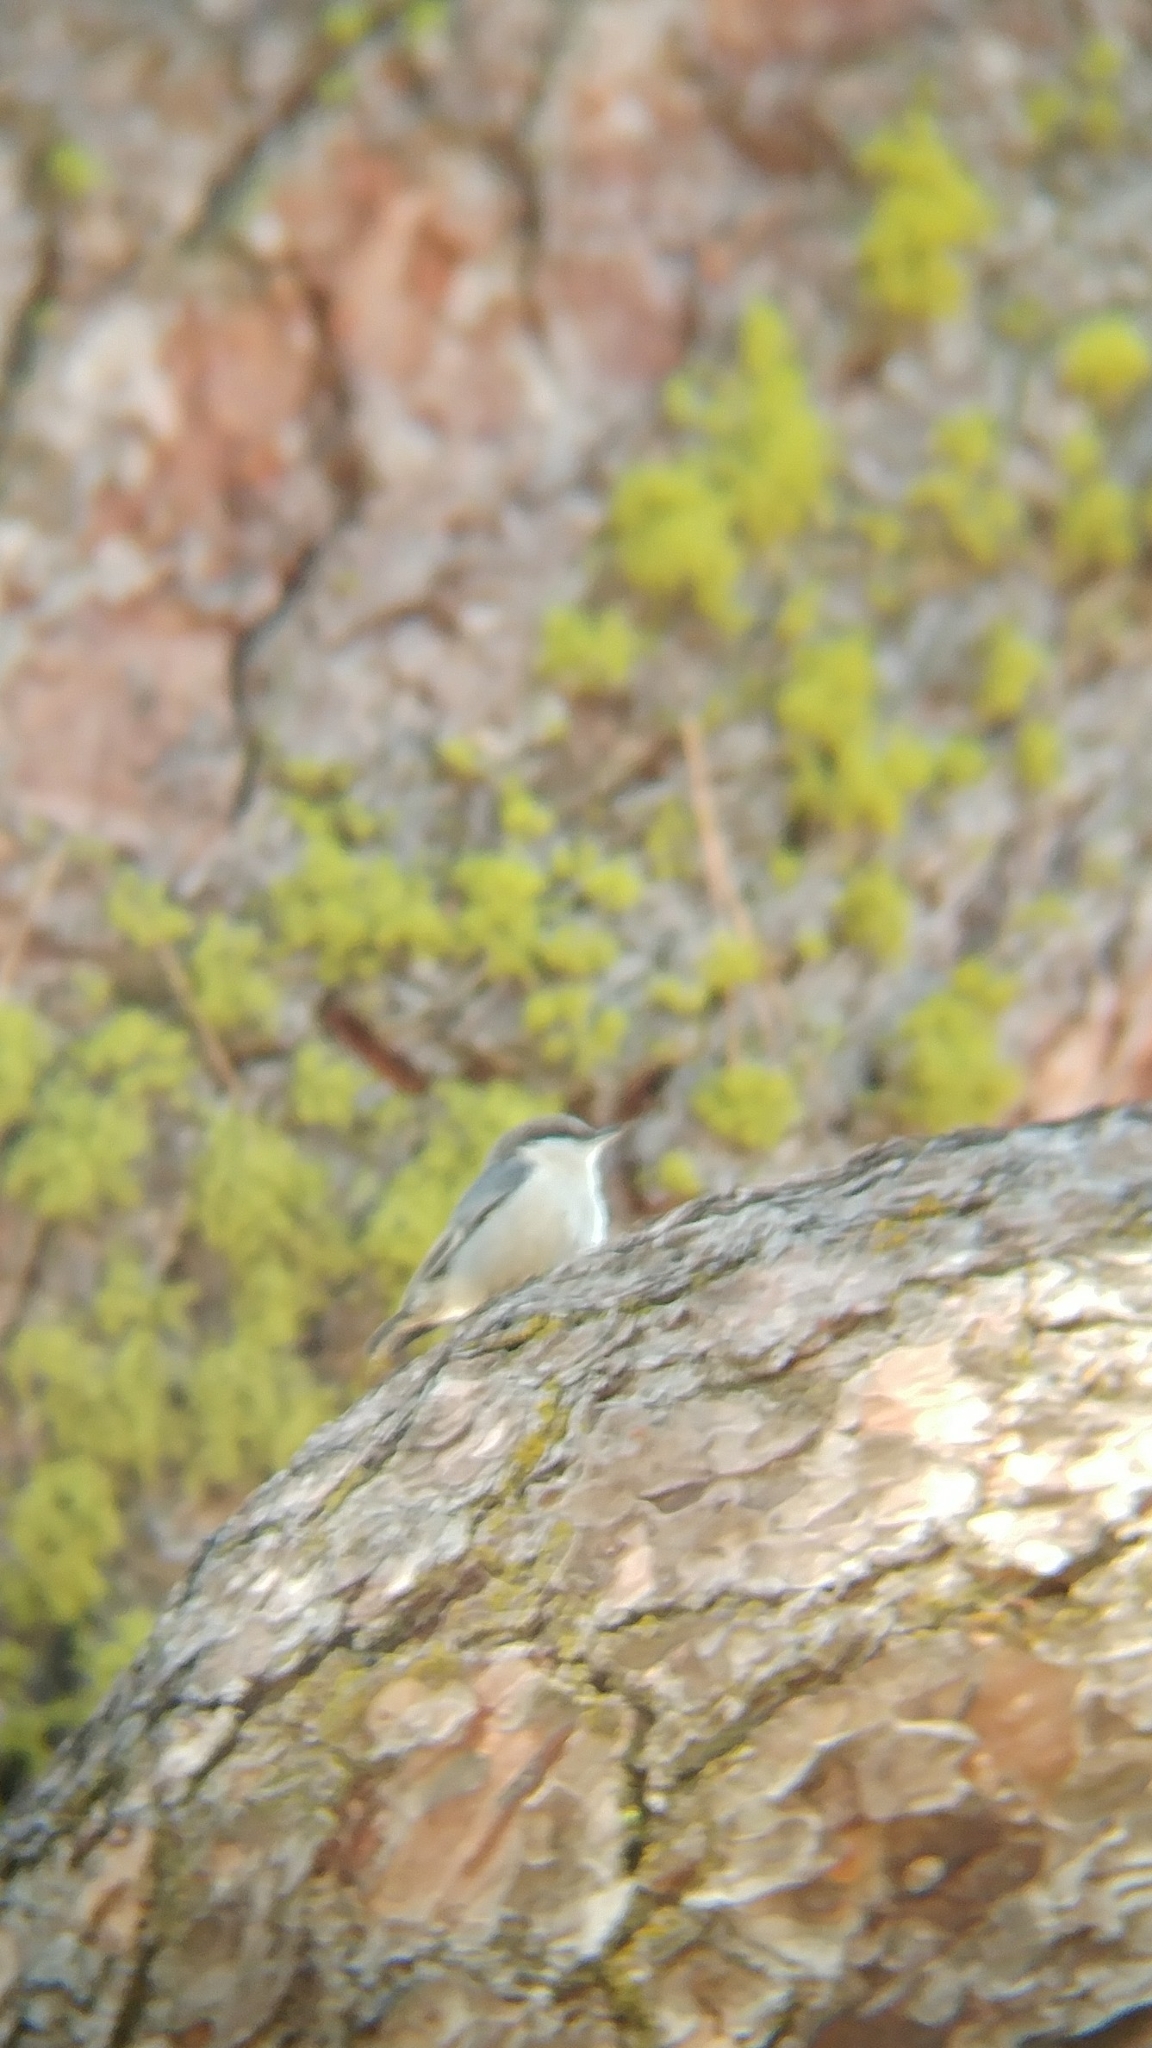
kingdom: Animalia
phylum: Chordata
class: Aves
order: Passeriformes
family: Sittidae
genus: Sitta
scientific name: Sitta pygmaea
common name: Pygmy nuthatch
